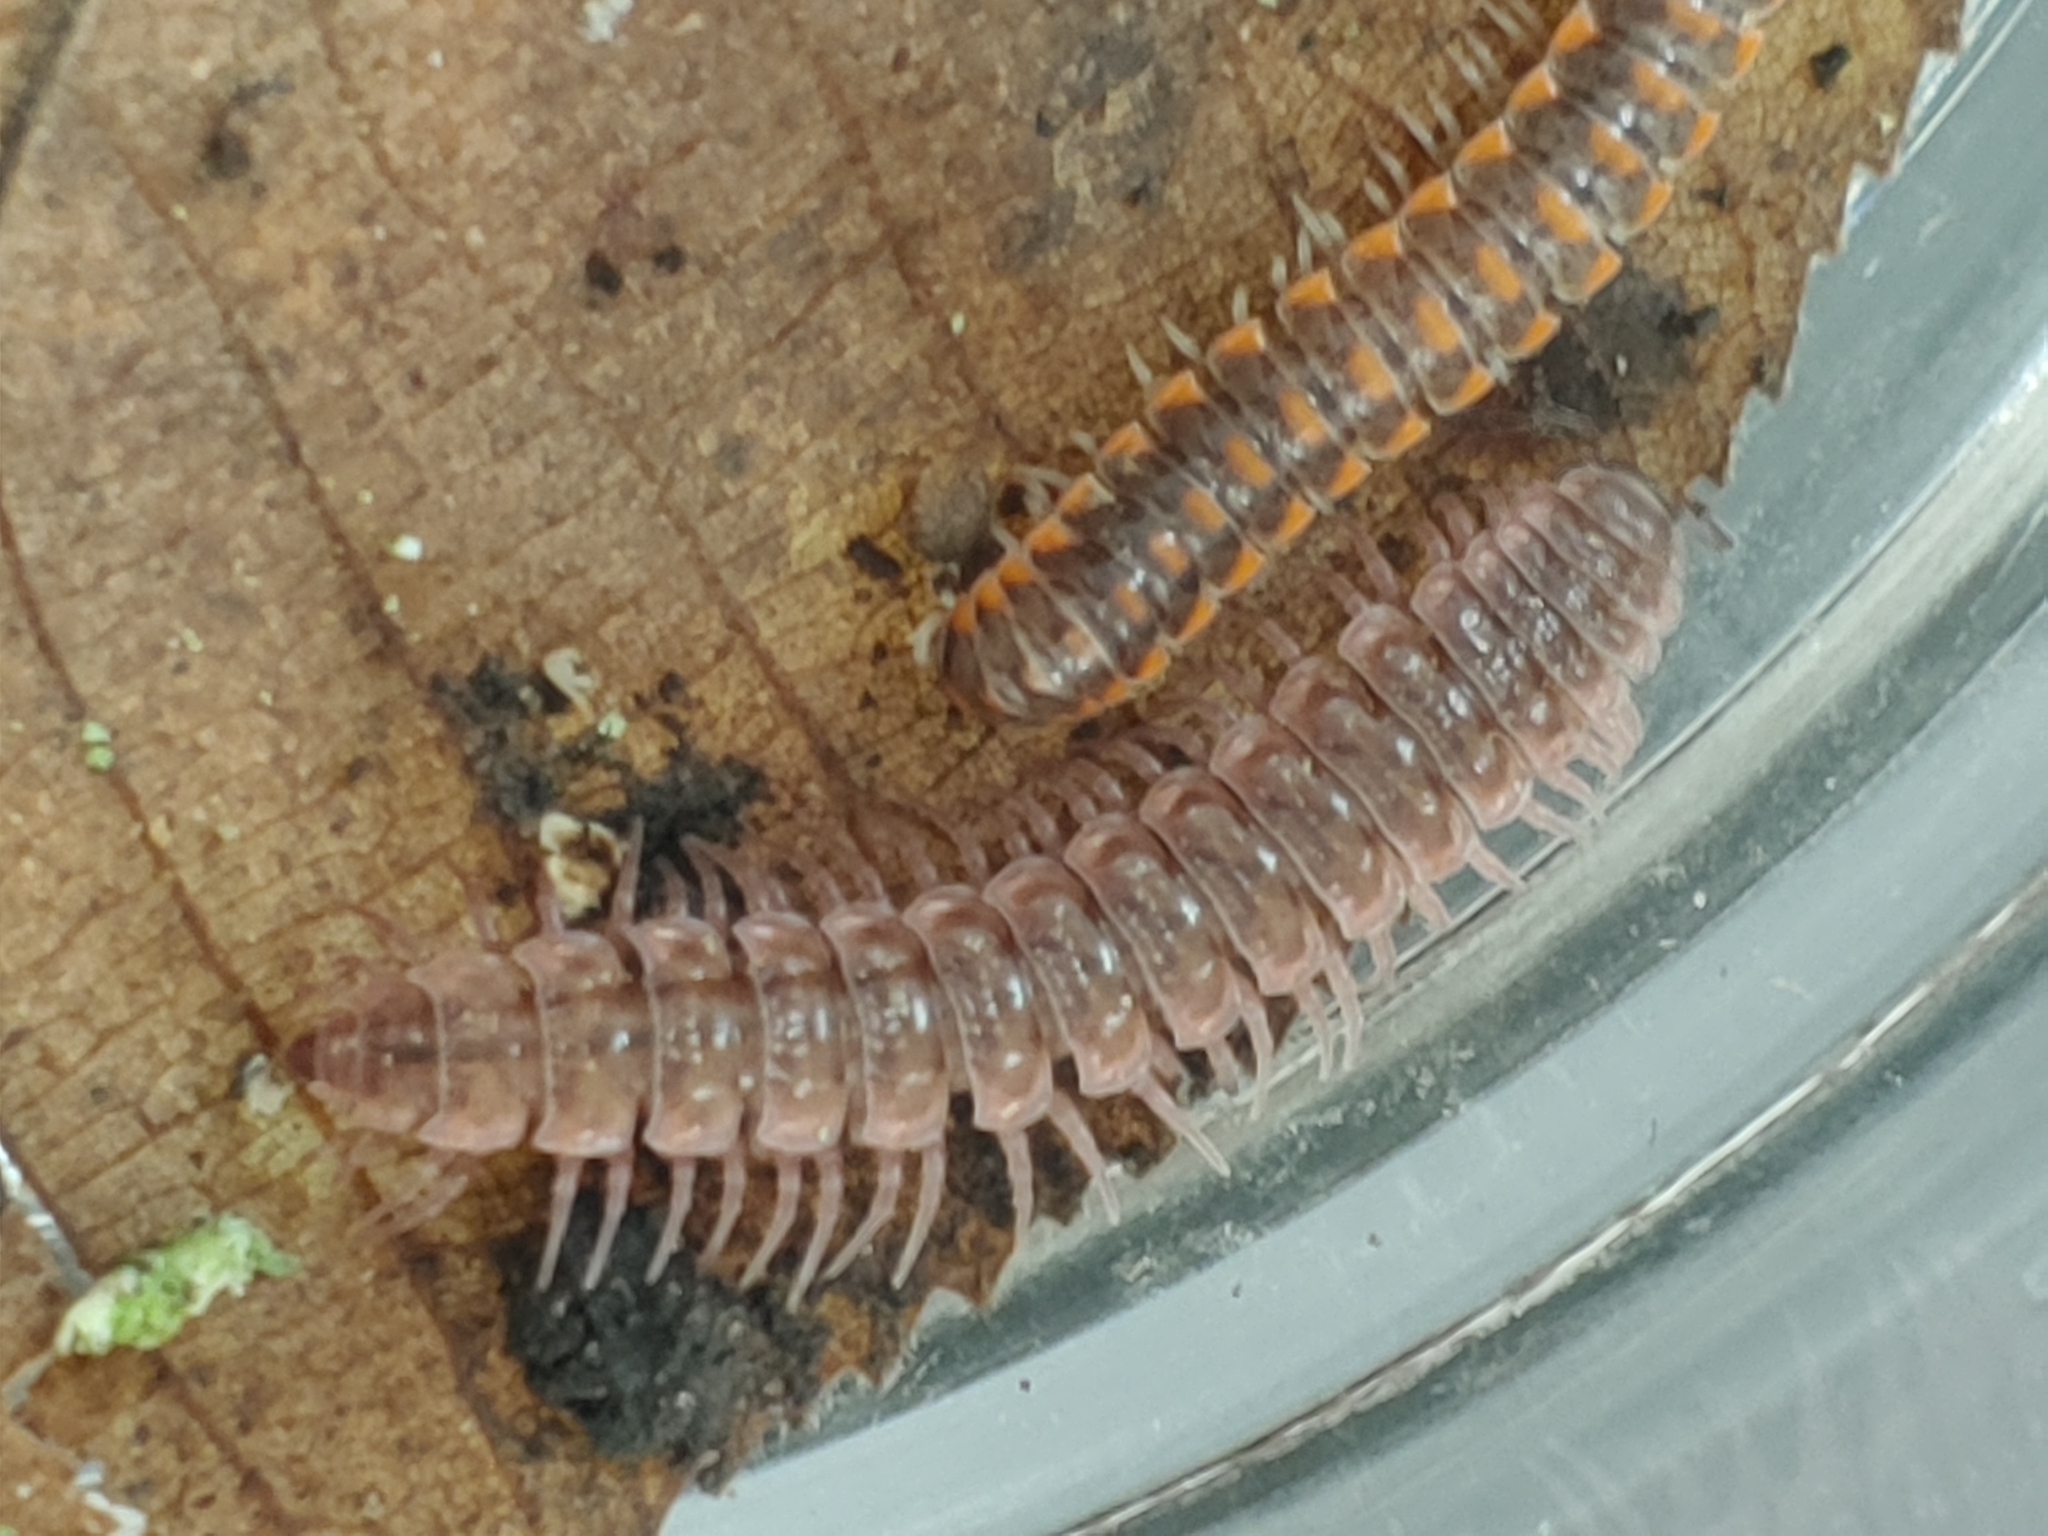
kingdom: Animalia
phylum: Arthropoda
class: Diplopoda
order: Polydesmida
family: Polydesmidae
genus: Pseudopolydesmus
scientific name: Pseudopolydesmus serratus
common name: Common pink flat-back millipede
